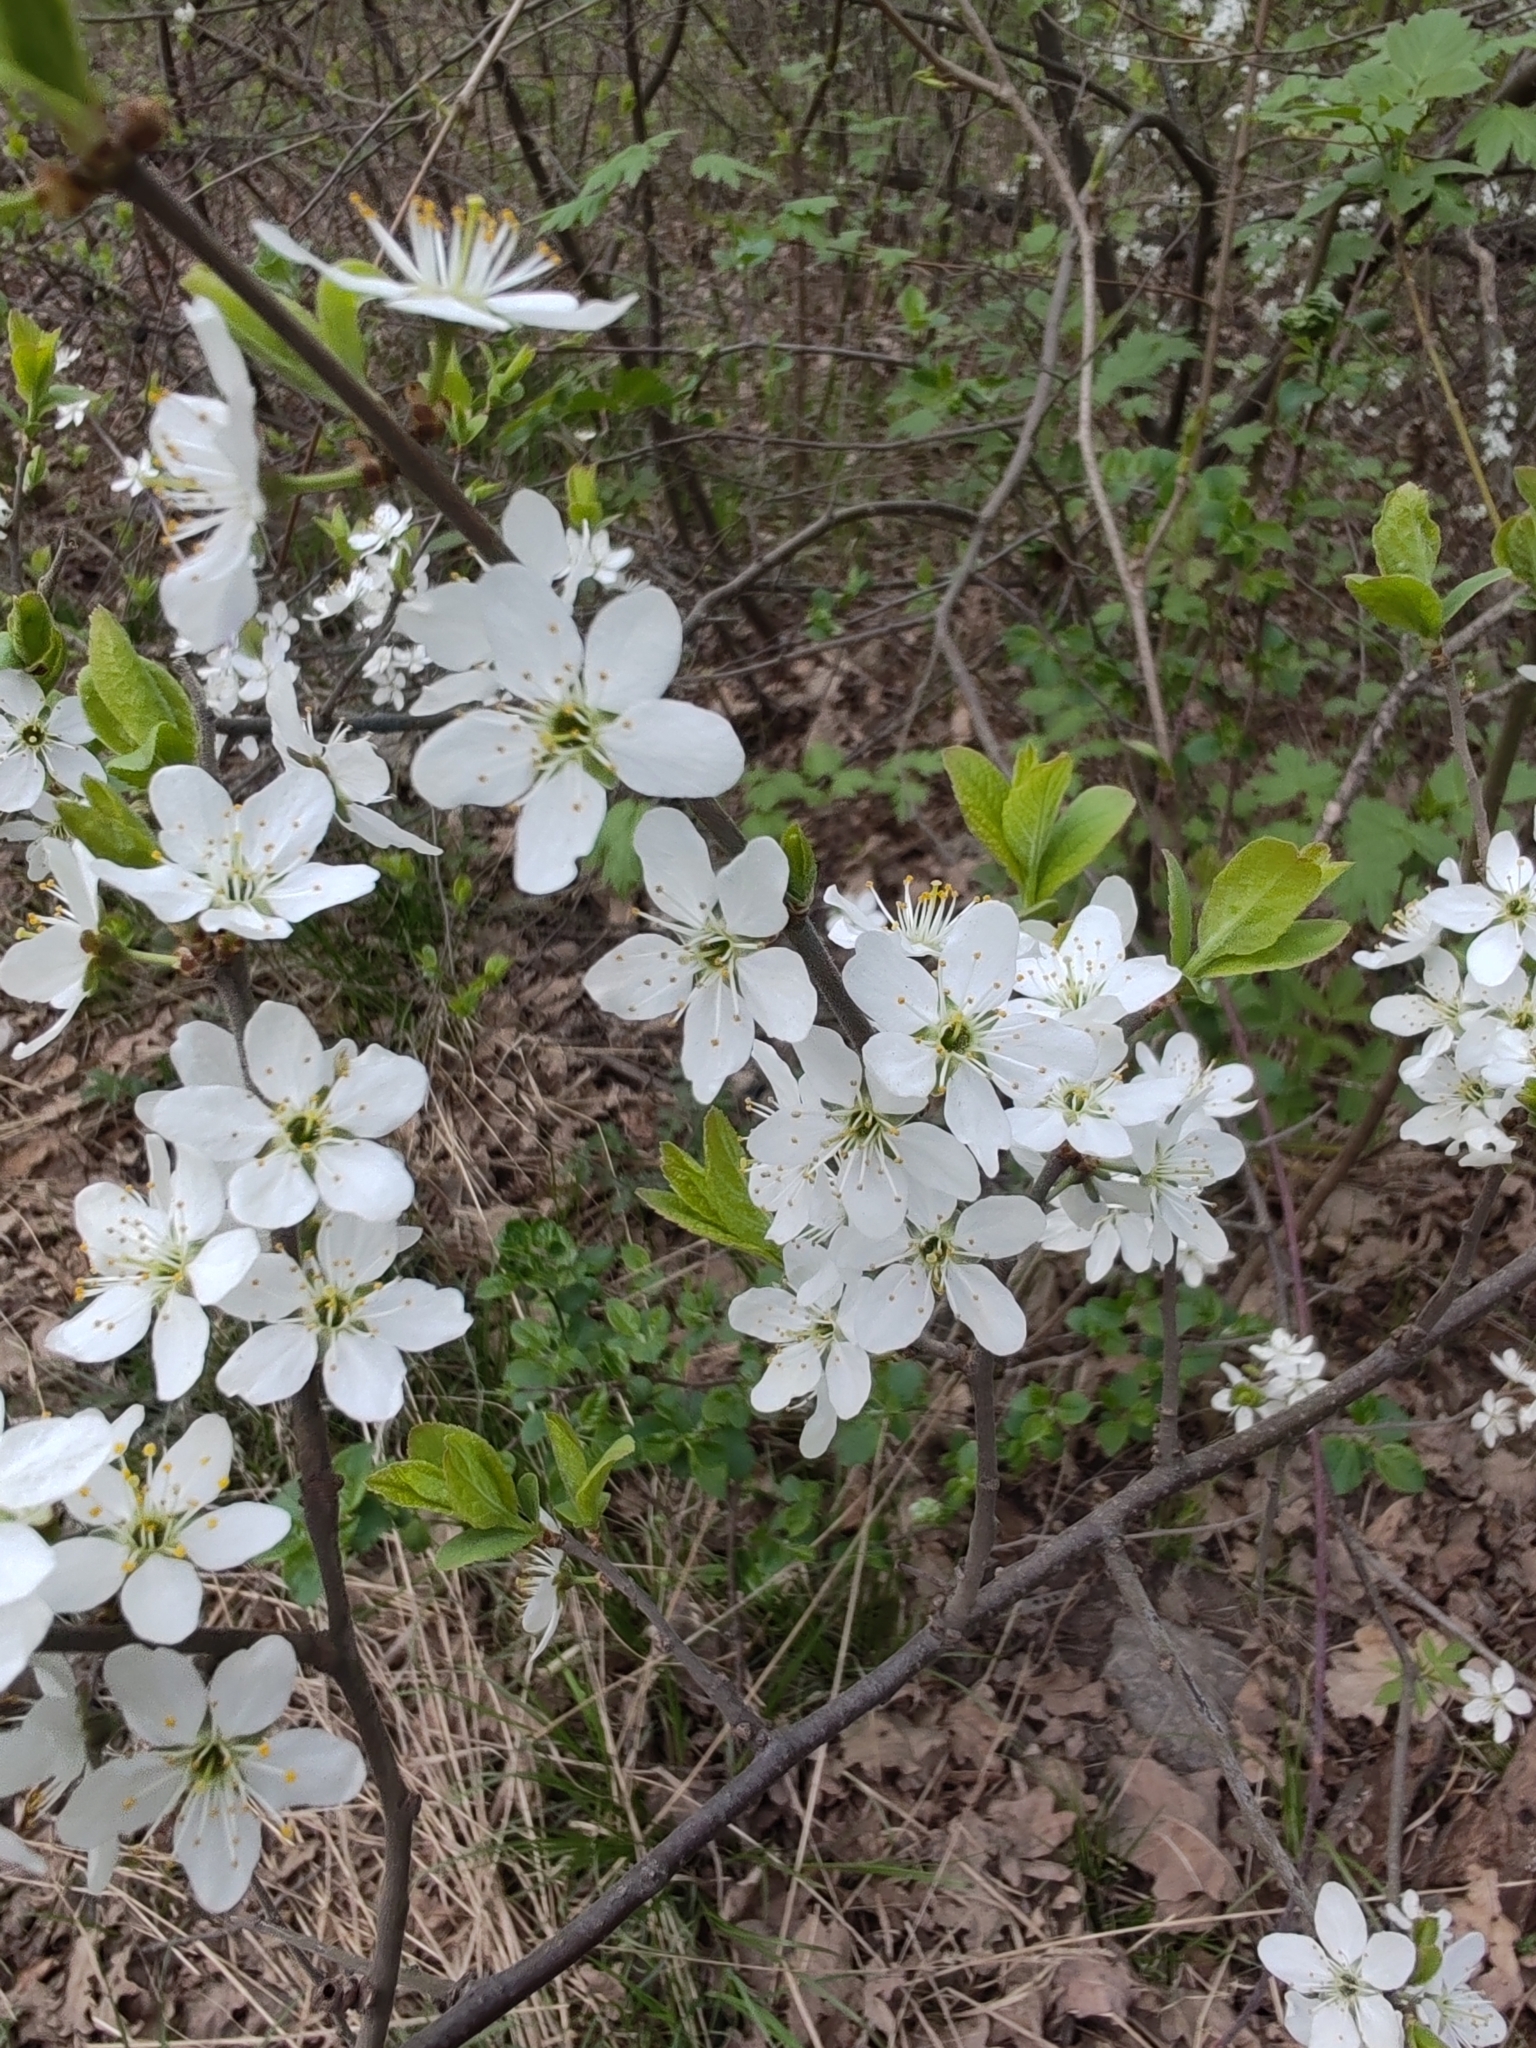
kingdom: Plantae
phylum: Tracheophyta
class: Magnoliopsida
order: Rosales
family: Rosaceae
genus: Prunus
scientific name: Prunus spinosa
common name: Blackthorn
